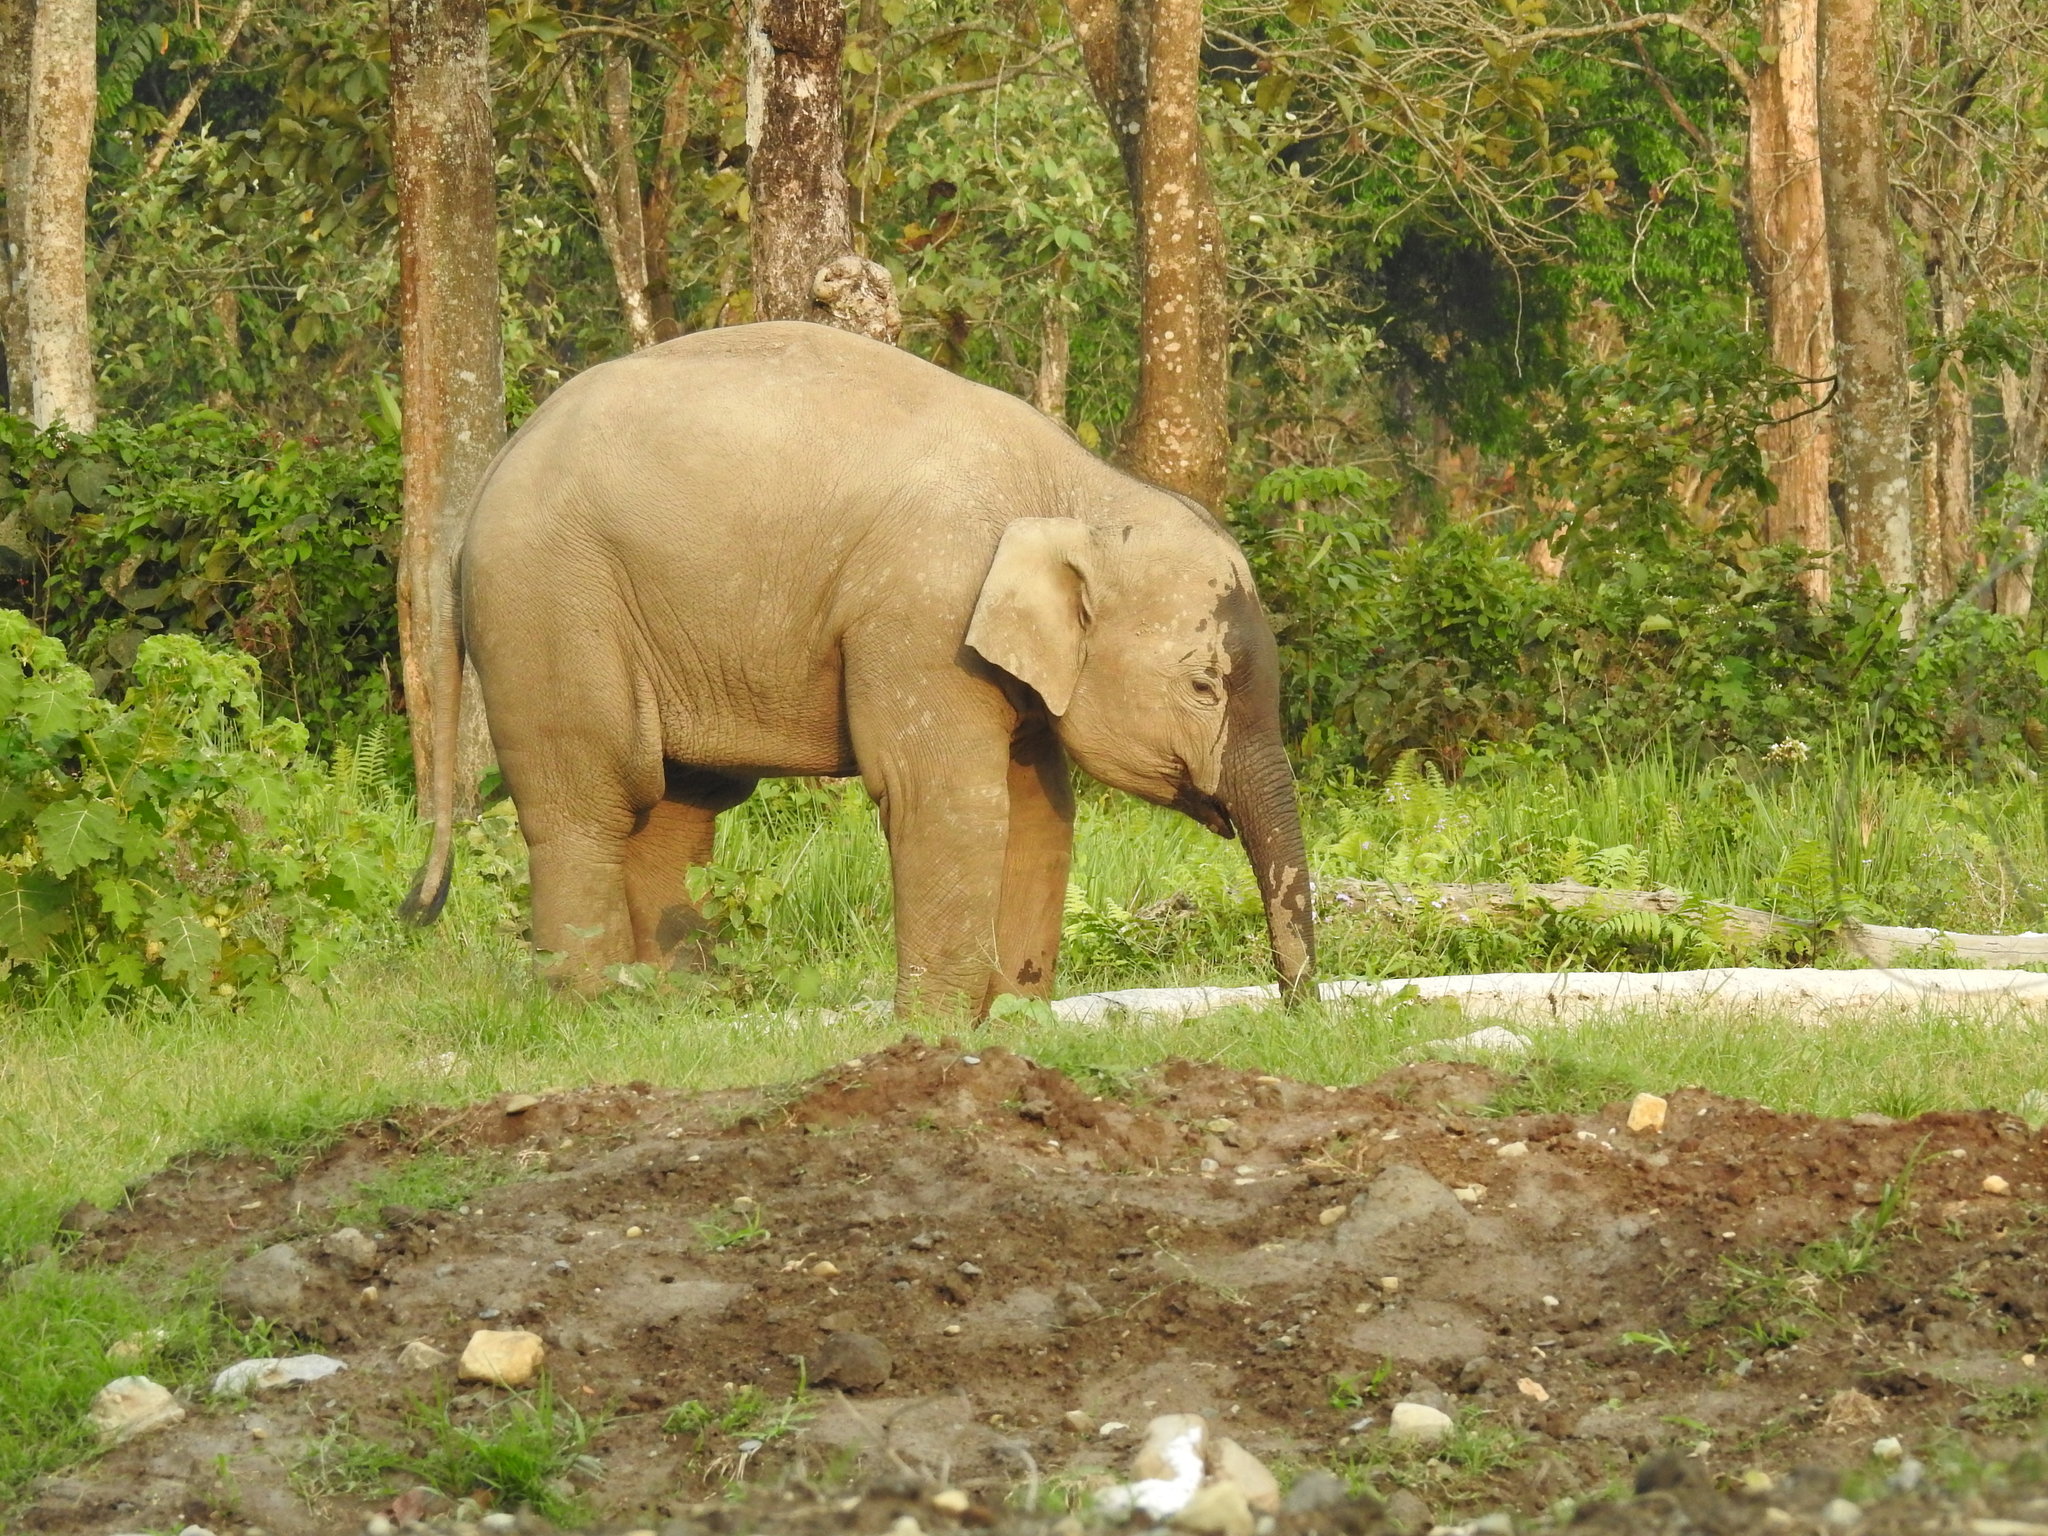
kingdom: Animalia
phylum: Chordata
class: Mammalia
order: Proboscidea
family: Elephantidae
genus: Elephas
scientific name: Elephas maximus
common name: Asian elephant
